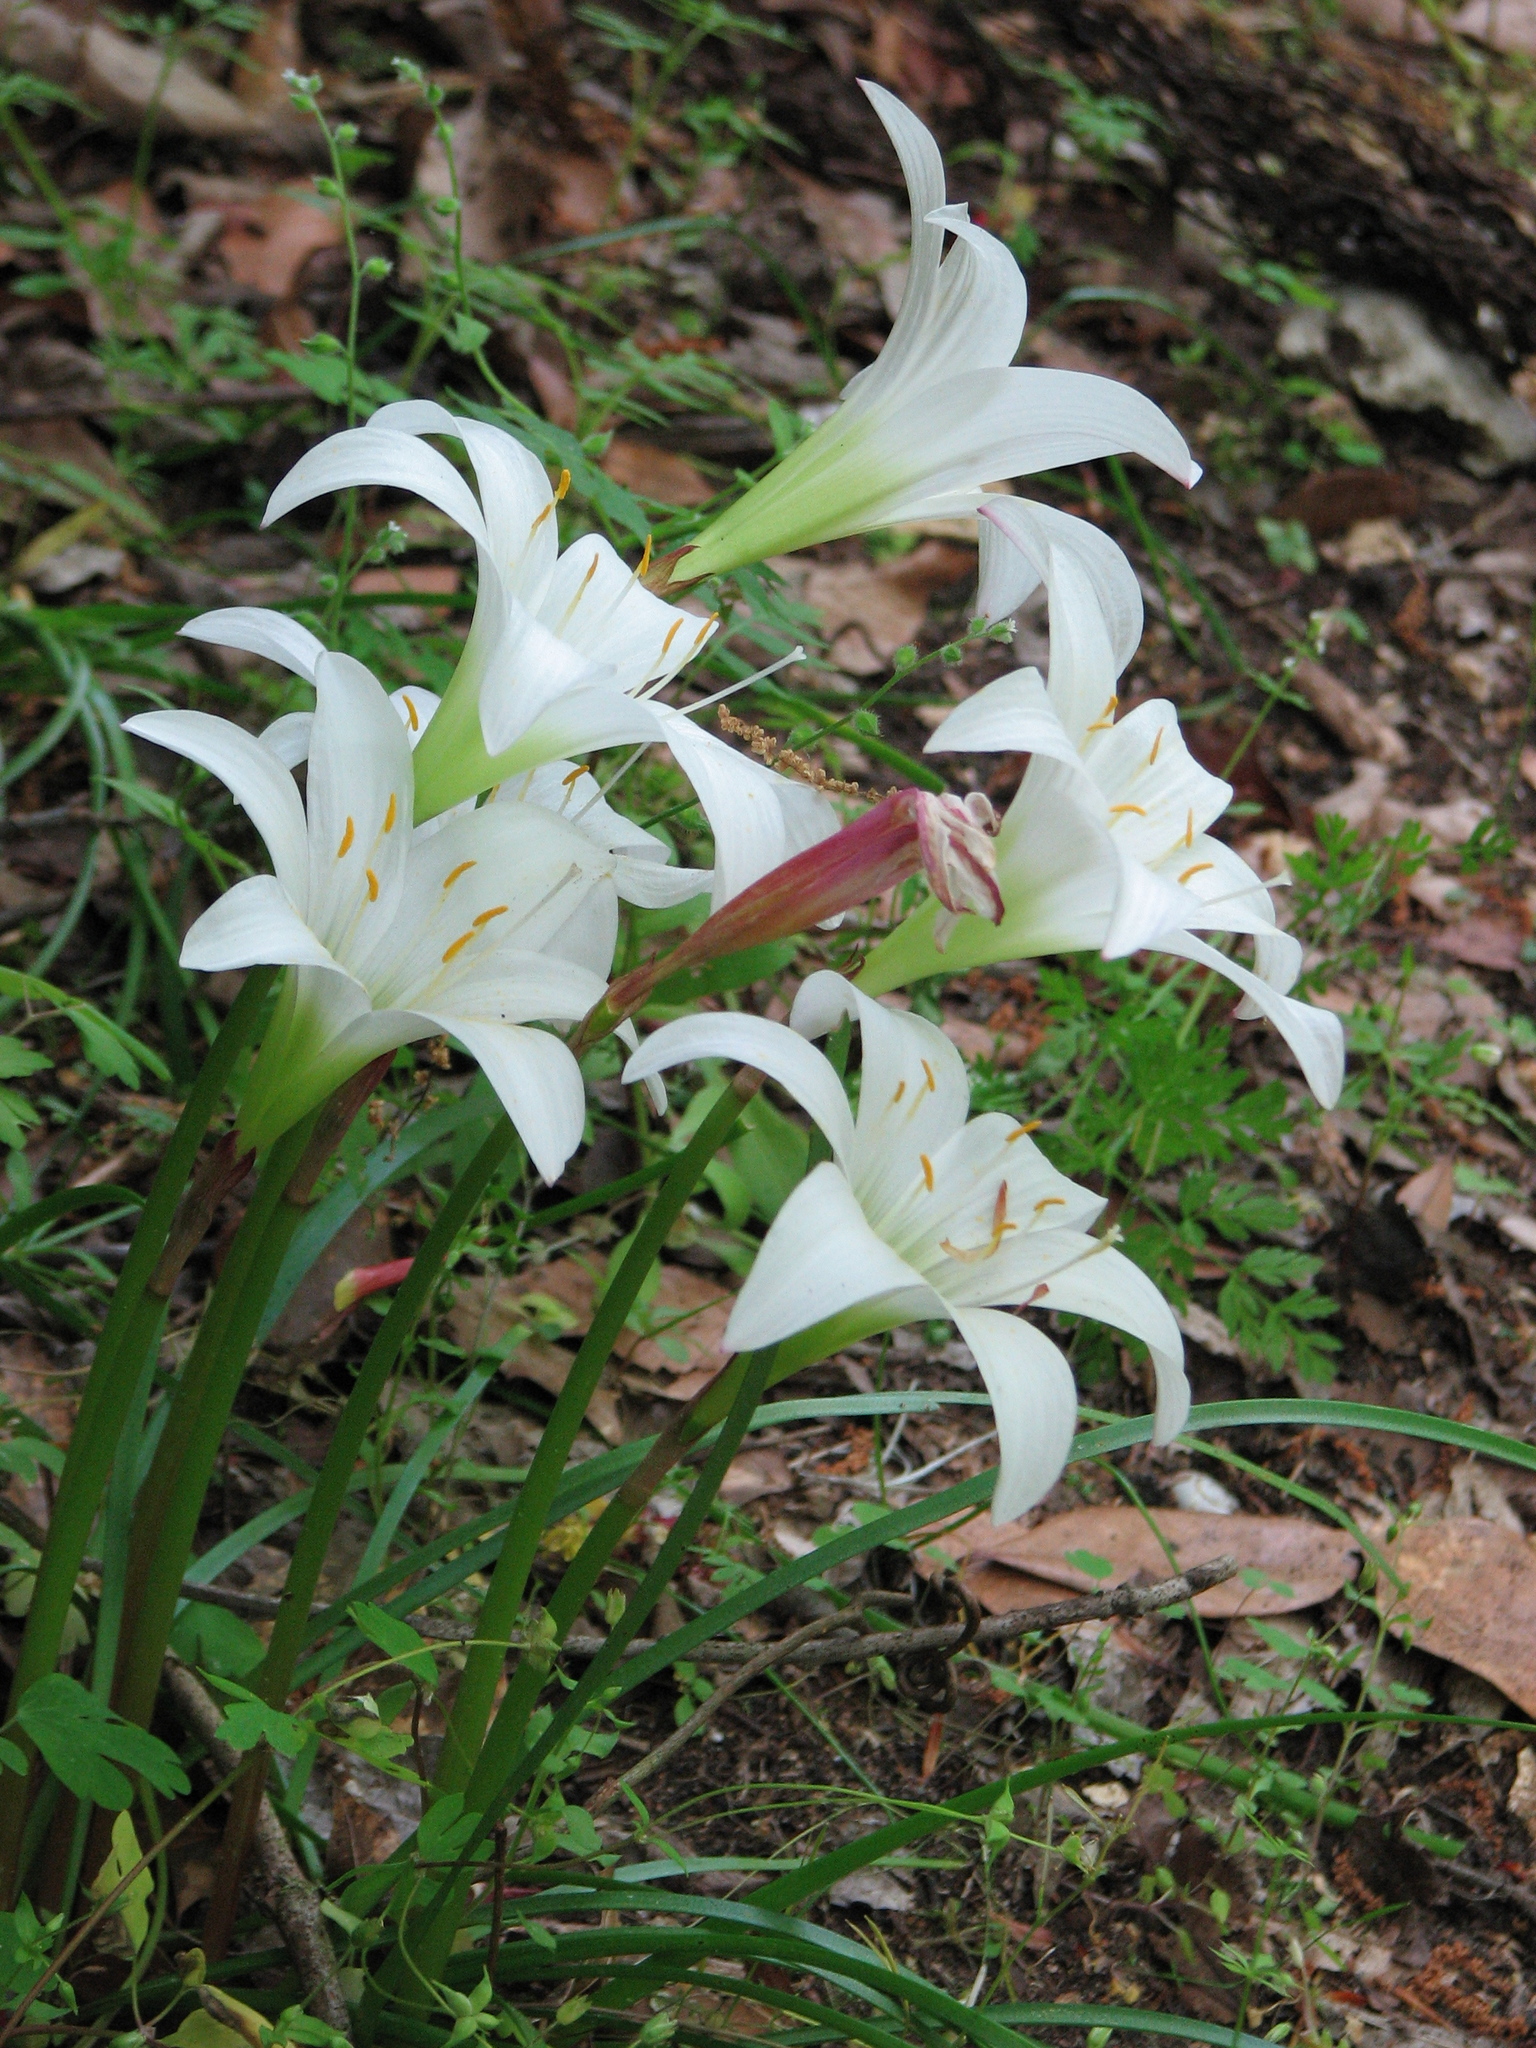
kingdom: Plantae
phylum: Tracheophyta
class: Liliopsida
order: Asparagales
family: Amaryllidaceae
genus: Zephyranthes
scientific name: Zephyranthes atamasco
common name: Atamasco lily
